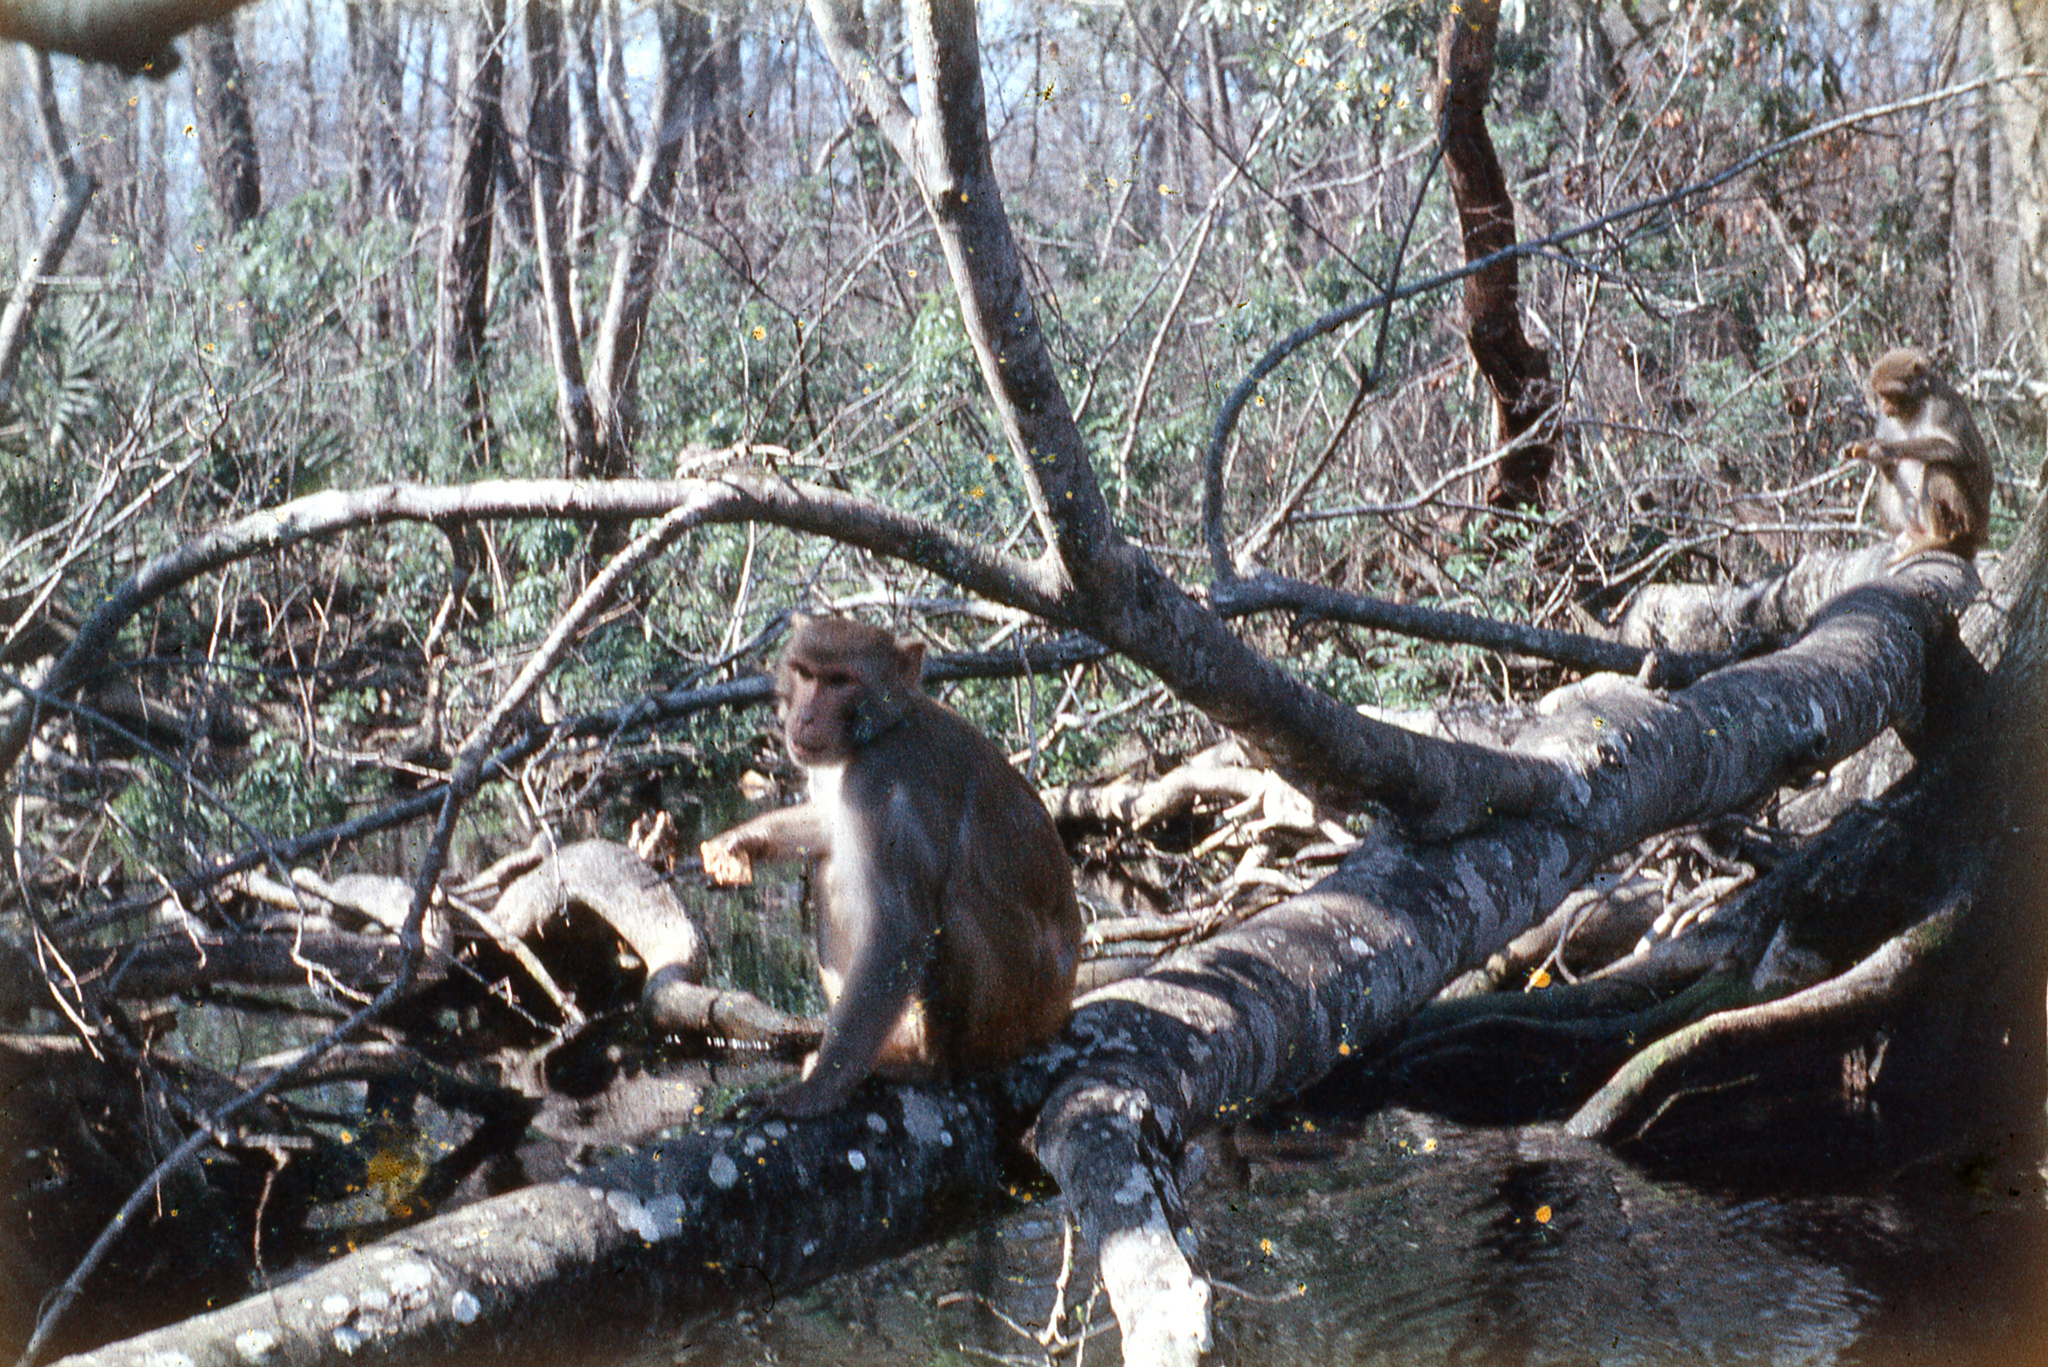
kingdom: Animalia
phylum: Chordata
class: Mammalia
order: Primates
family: Cercopithecidae
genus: Macaca
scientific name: Macaca mulatta
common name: Rhesus monkey
